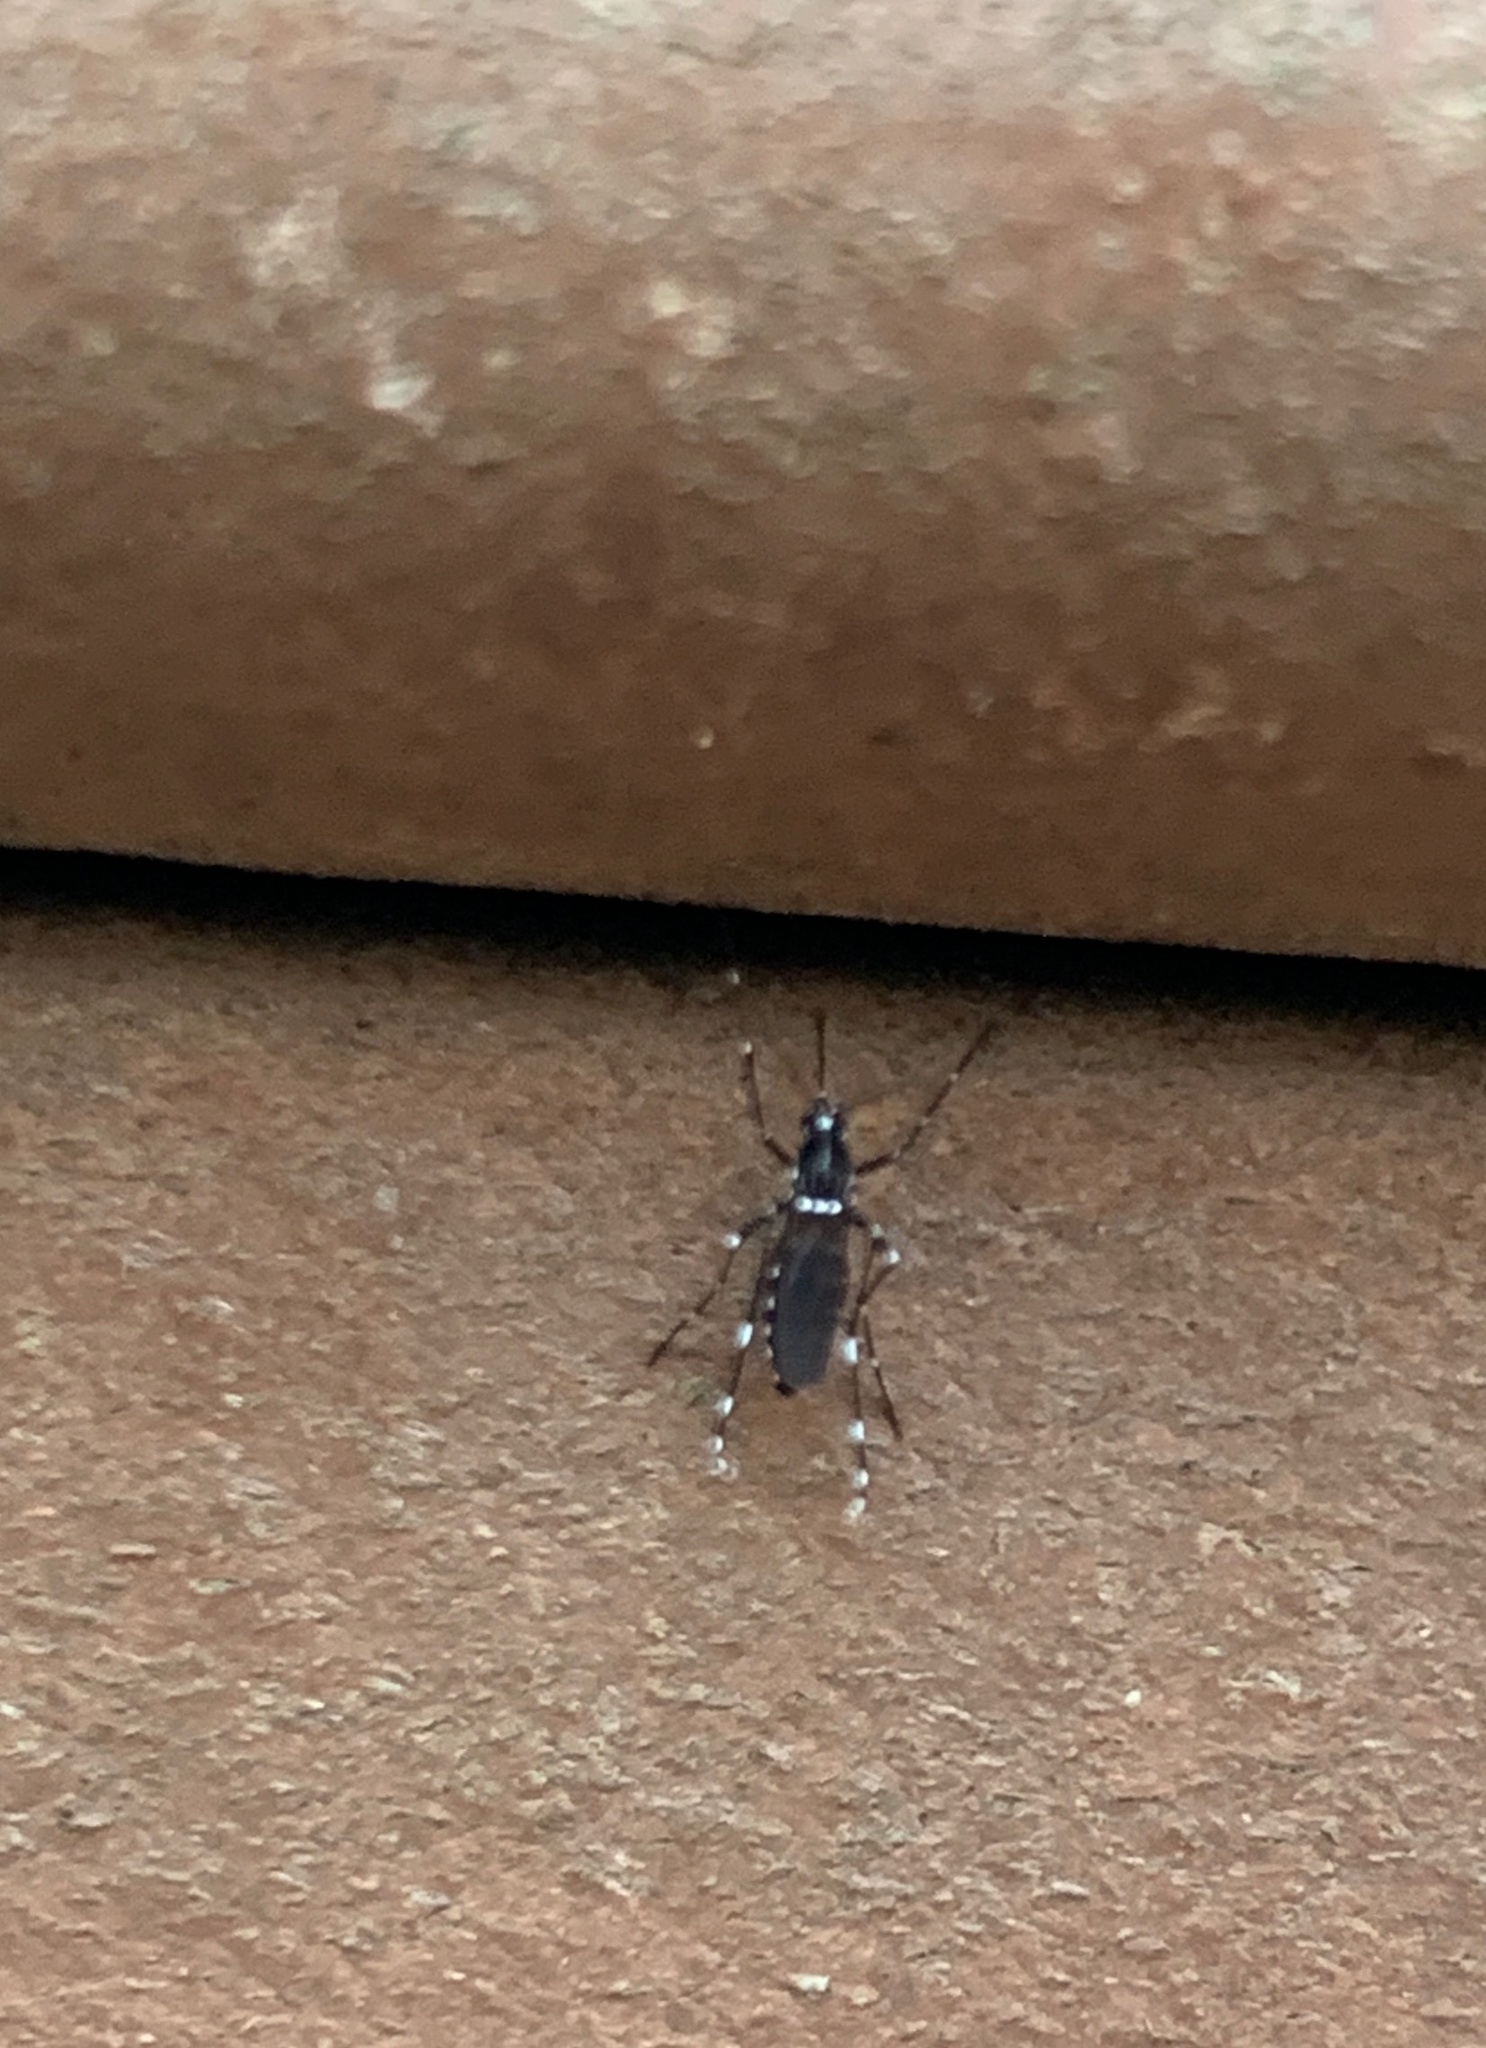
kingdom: Animalia
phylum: Arthropoda
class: Insecta
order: Diptera
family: Culicidae
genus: Aedes
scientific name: Aedes albopictus
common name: Tiger mosquito
